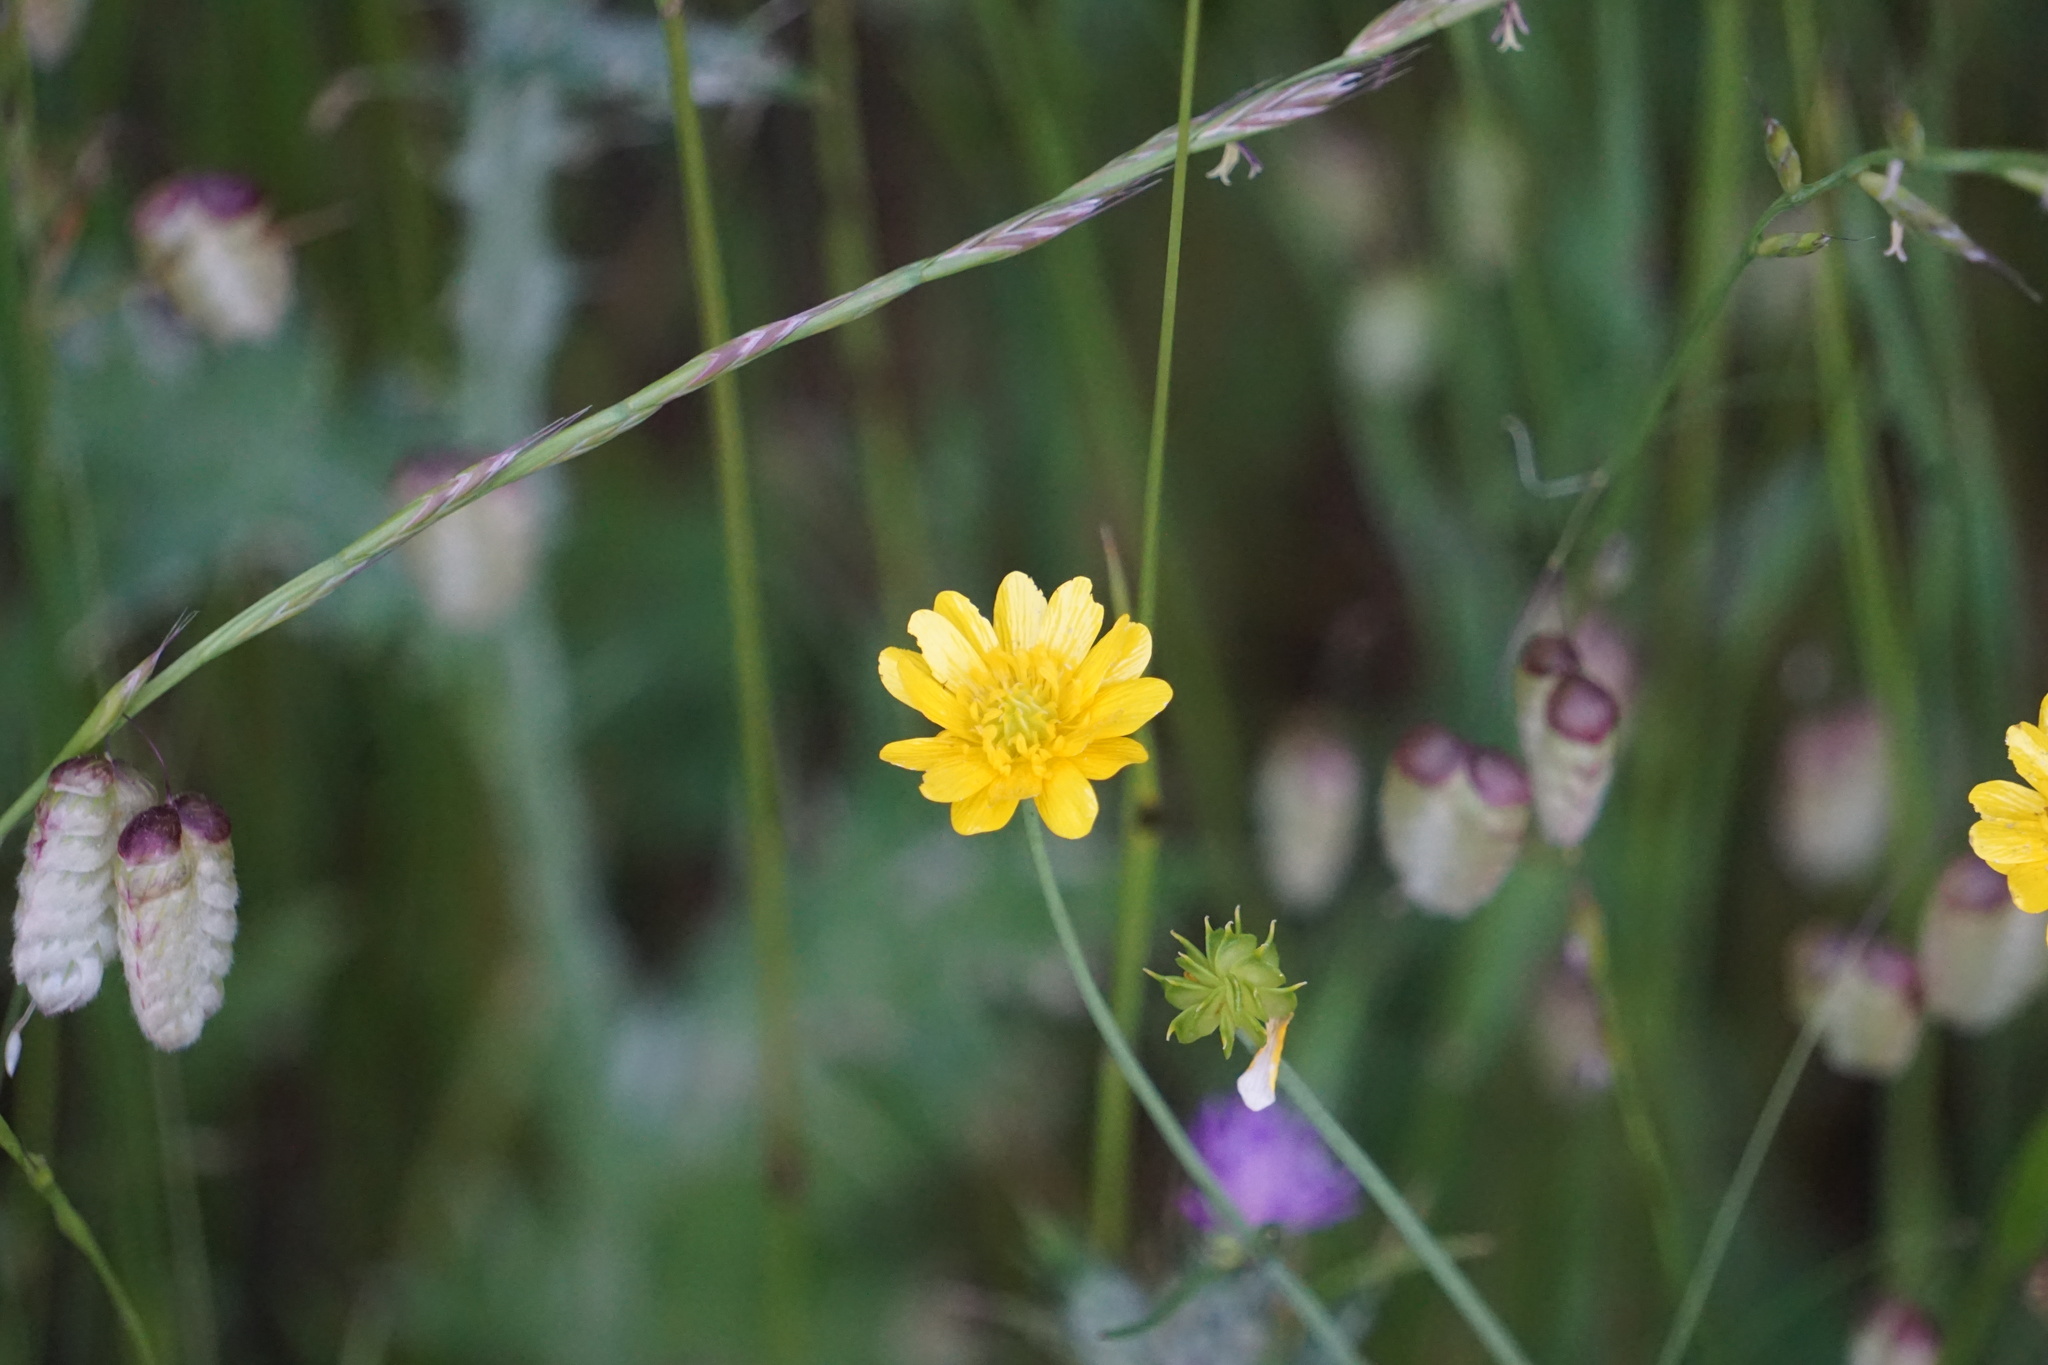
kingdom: Plantae
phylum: Tracheophyta
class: Magnoliopsida
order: Ranunculales
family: Ranunculaceae
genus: Ranunculus
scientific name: Ranunculus californicus
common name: California buttercup
